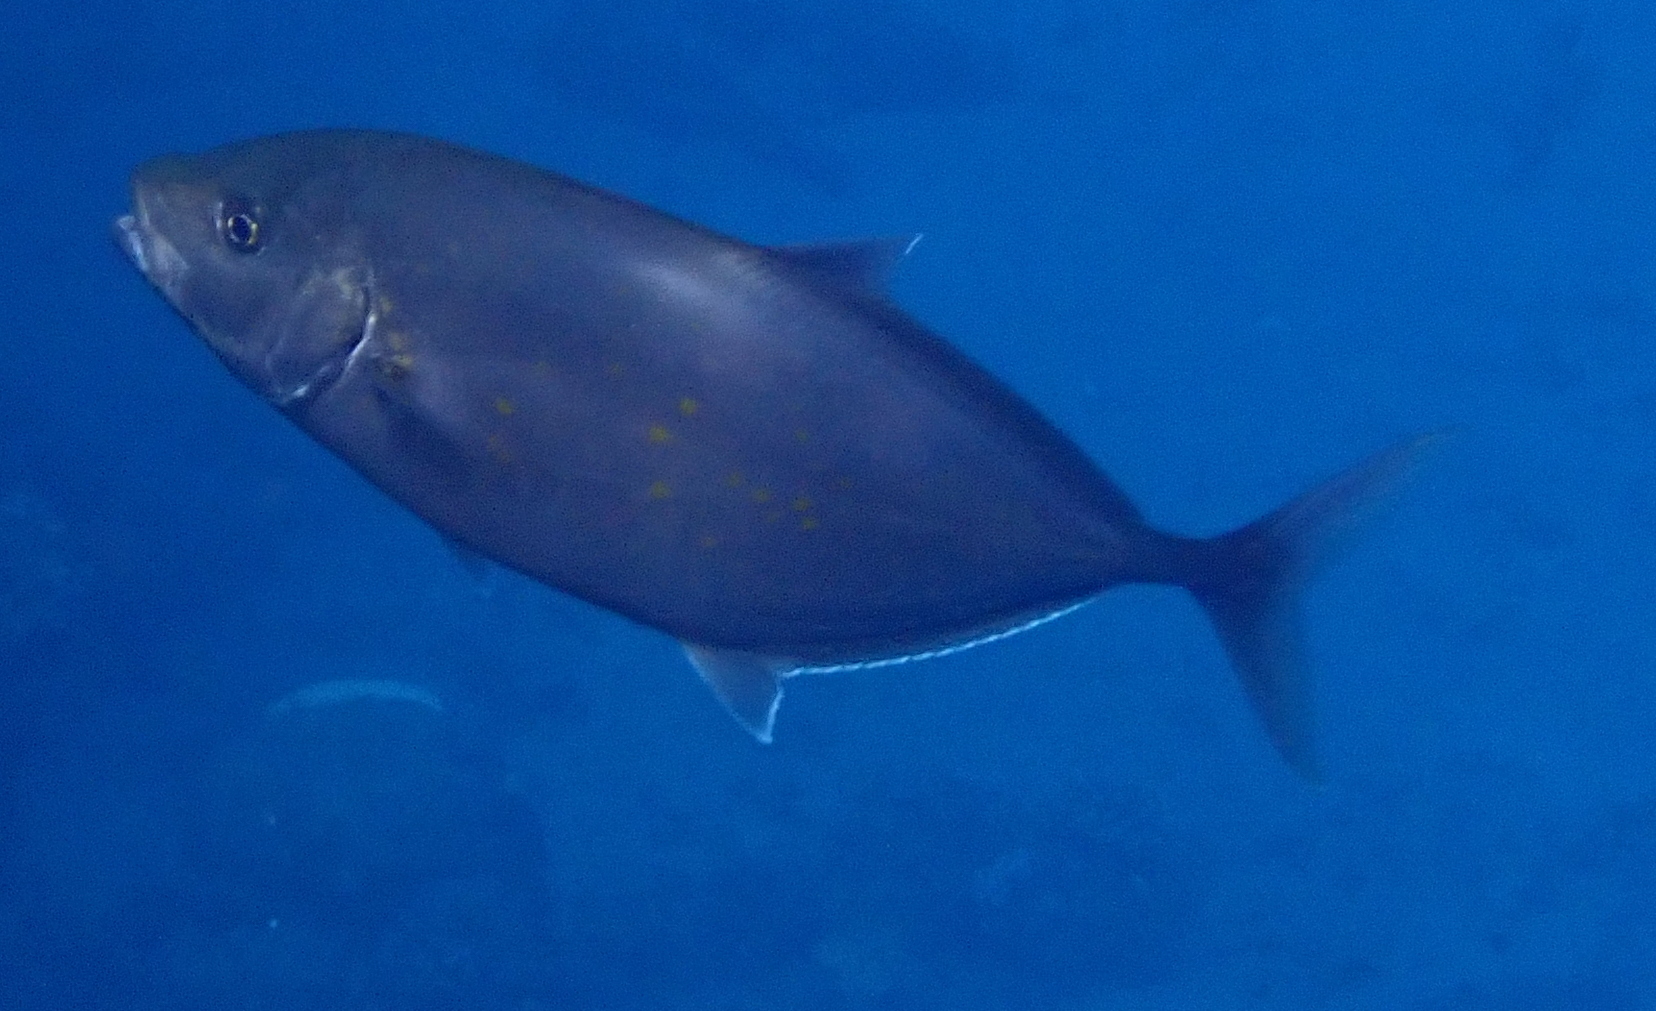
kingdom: Animalia
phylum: Chordata
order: Perciformes
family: Carangidae
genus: Flavocaranx
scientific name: Flavocaranx bajad
